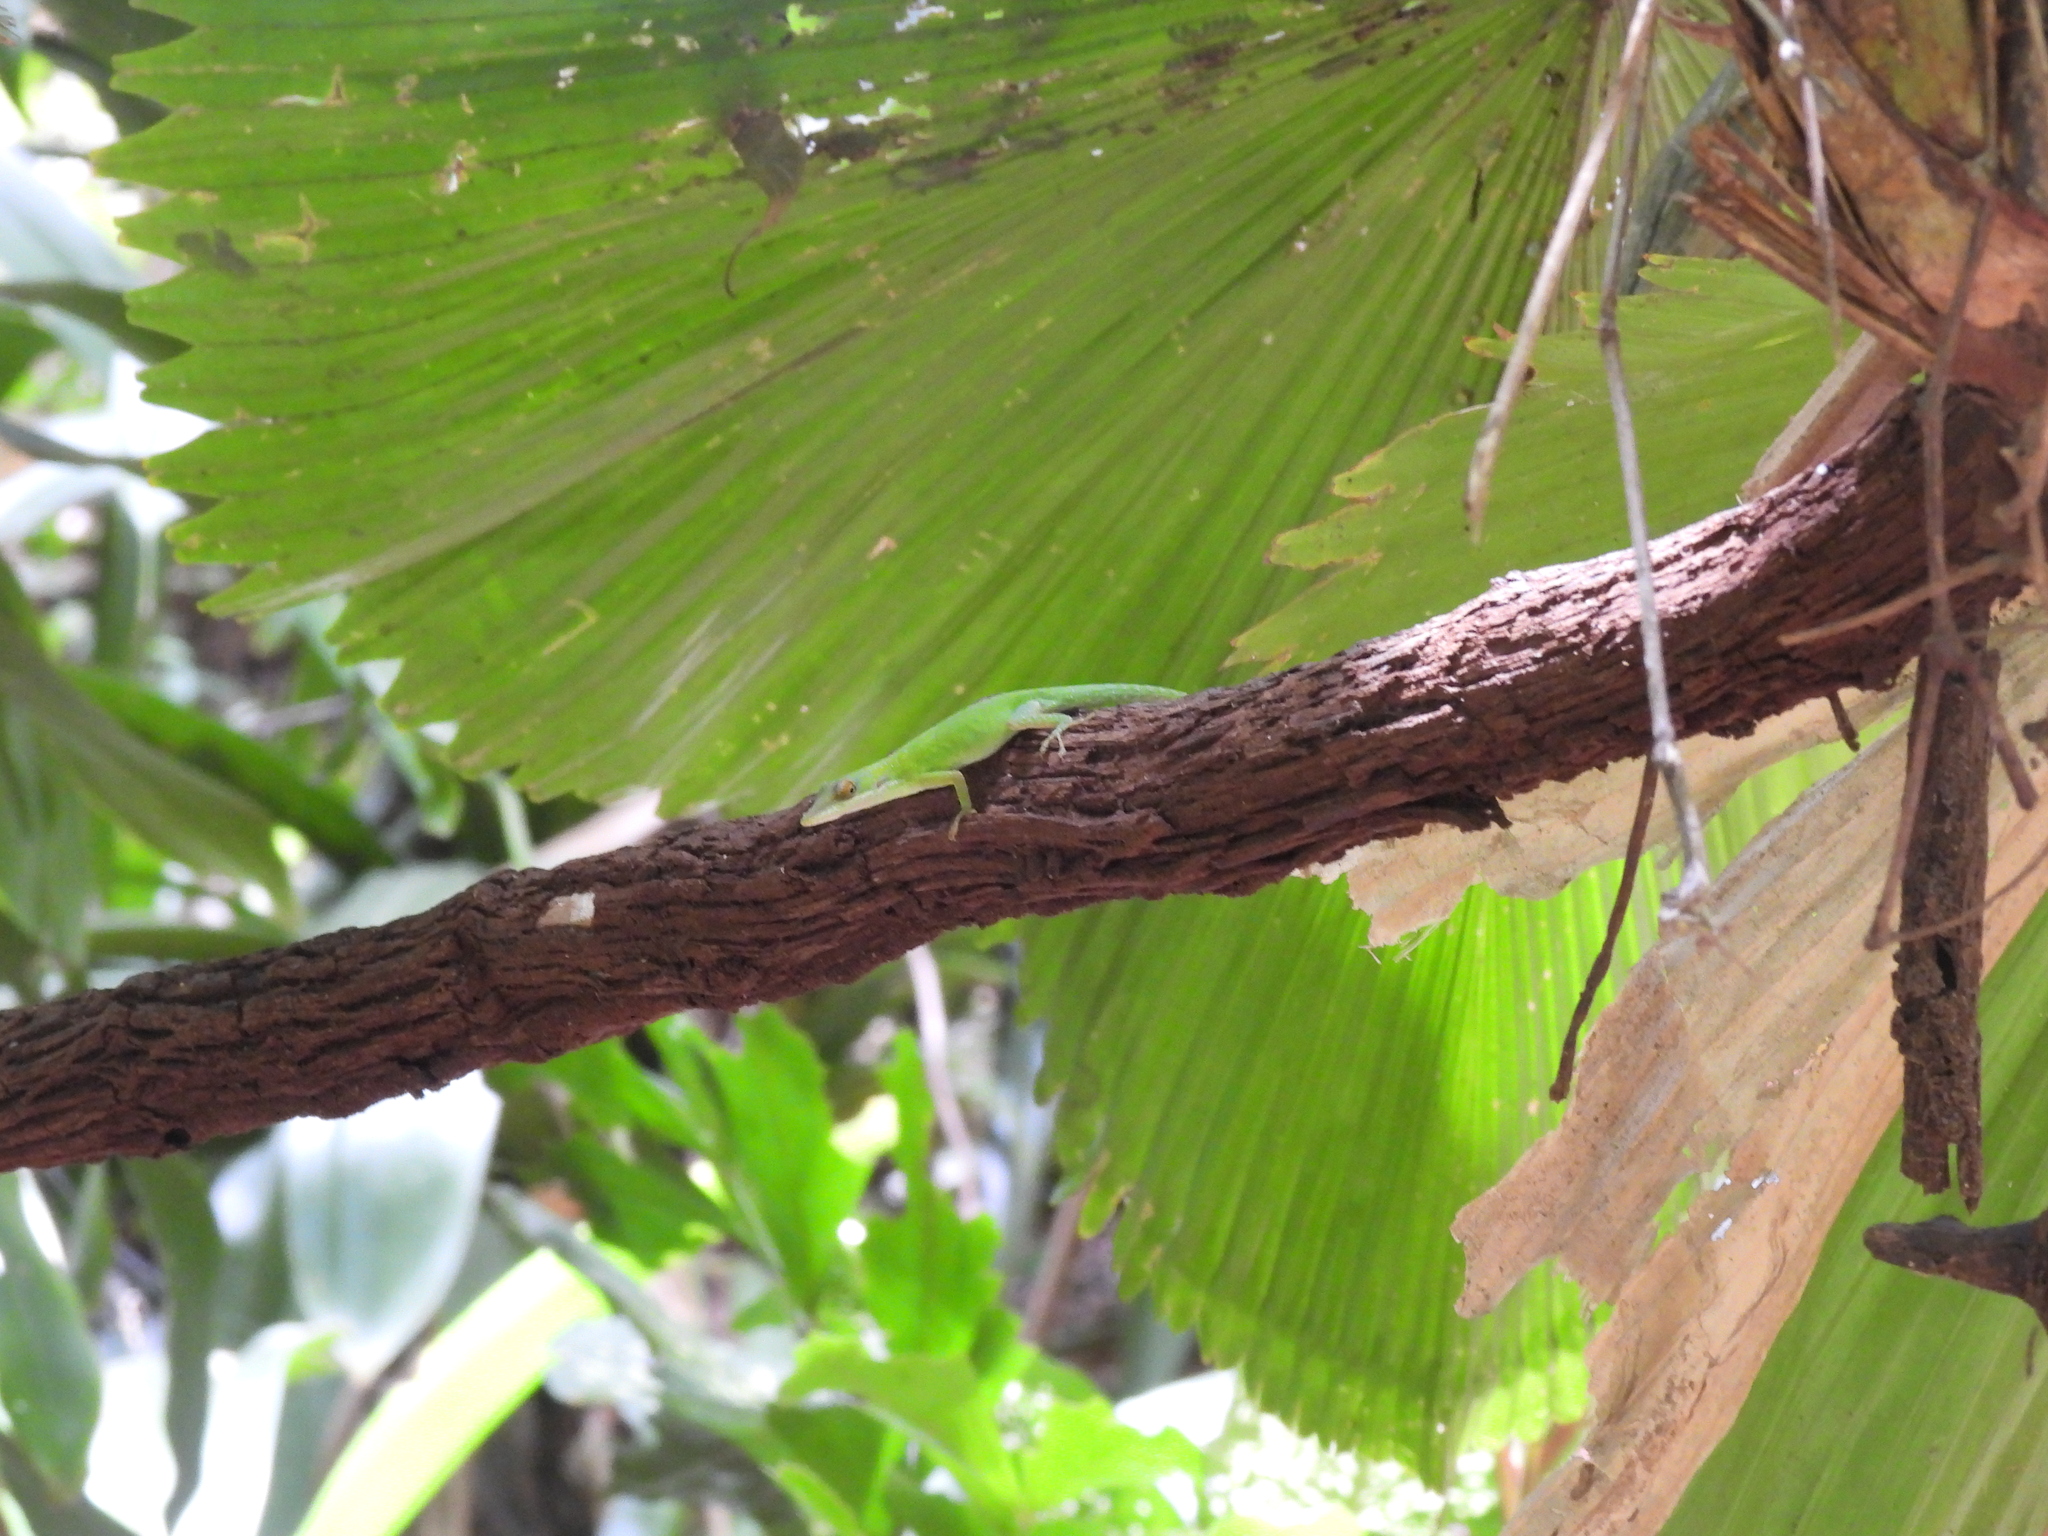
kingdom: Animalia
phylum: Chordata
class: Squamata
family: Dactyloidae
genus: Anolis
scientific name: Anolis allisoni
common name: Allison's anole
